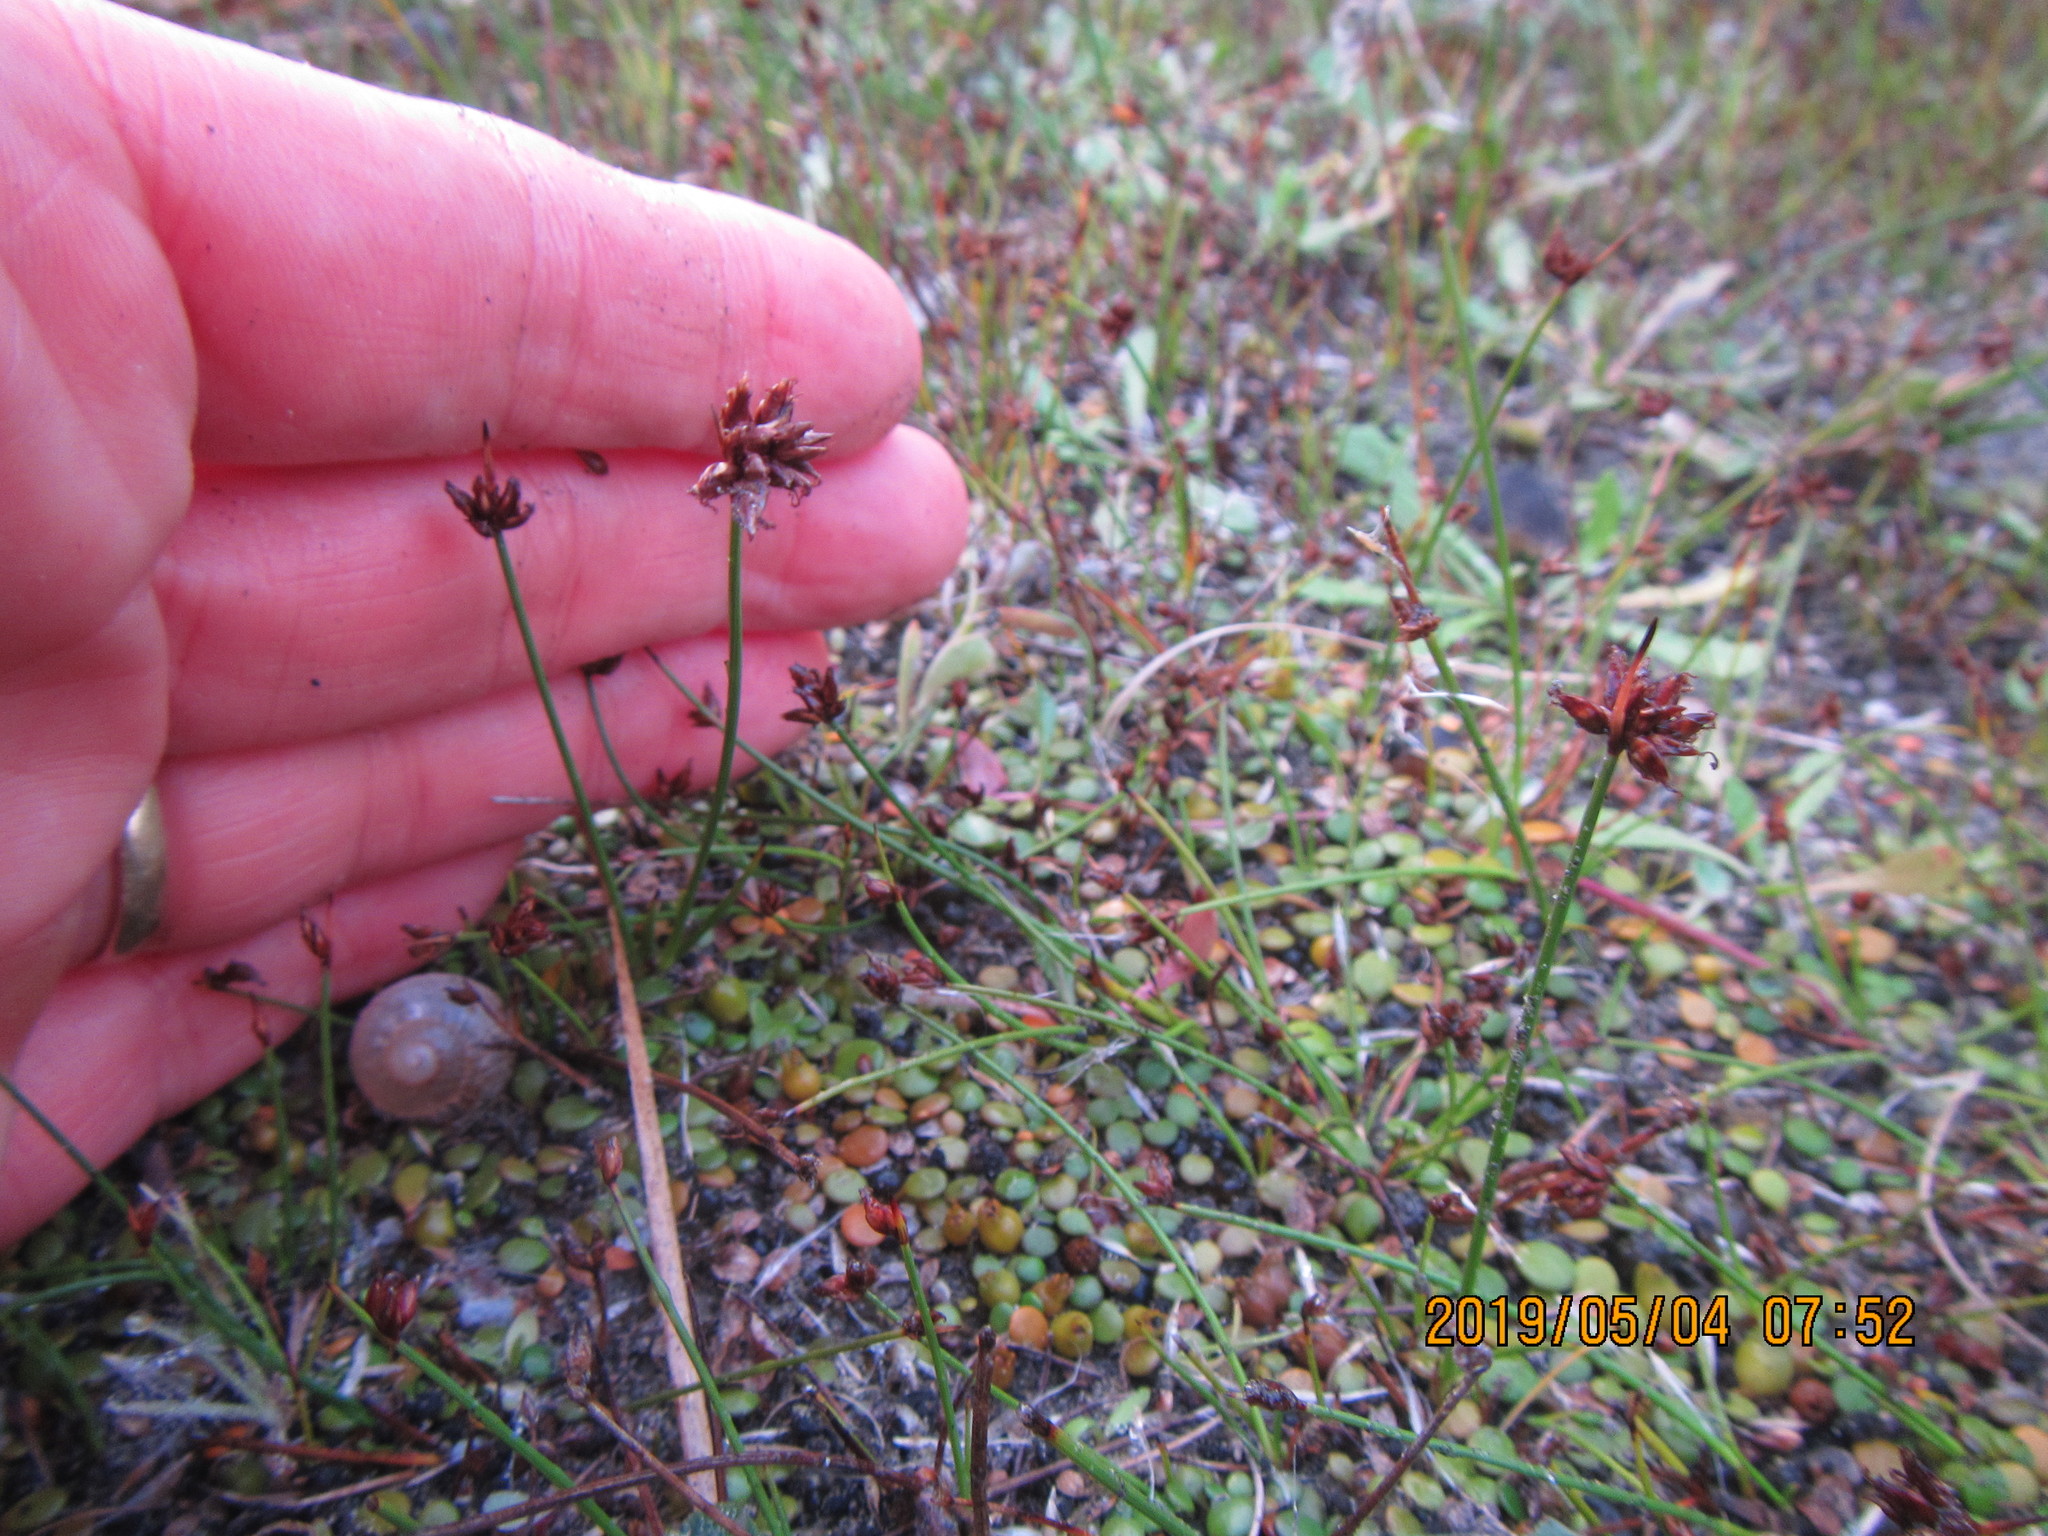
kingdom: Plantae
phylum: Tracheophyta
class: Liliopsida
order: Poales
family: Cyperaceae
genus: Schoenus
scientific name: Schoenus nitens
